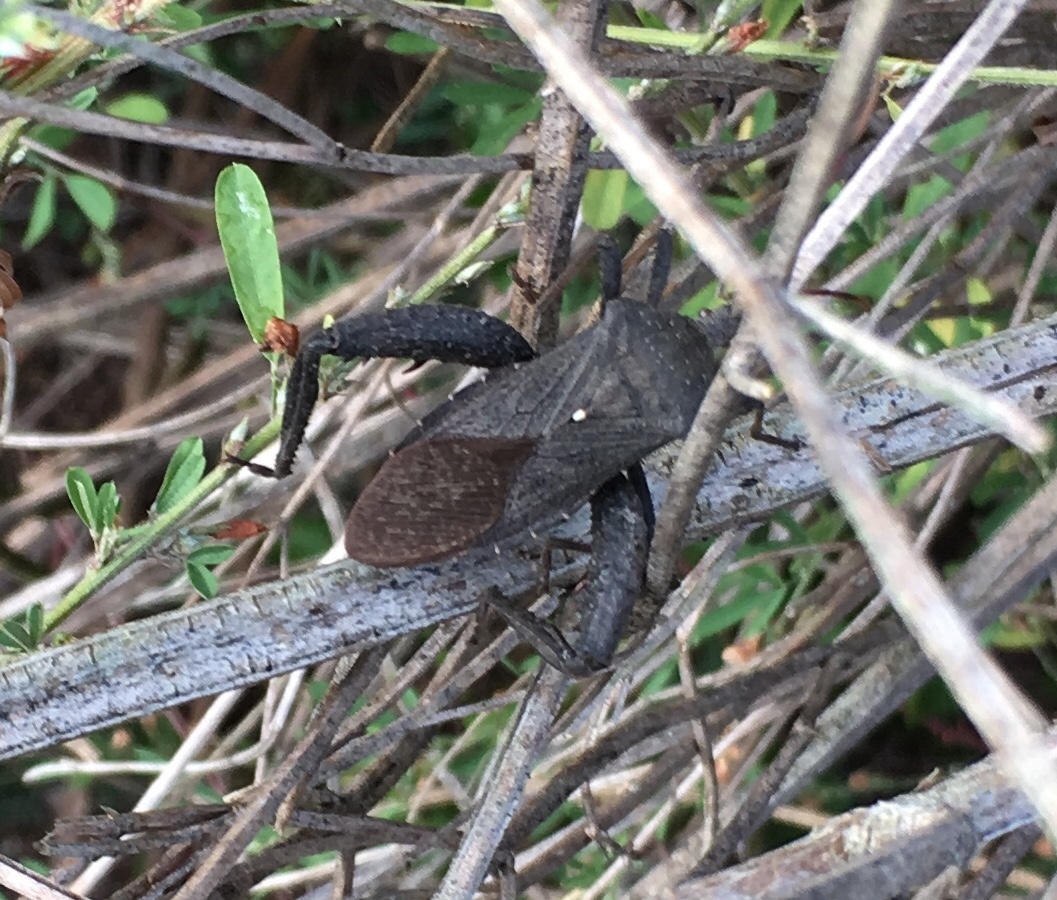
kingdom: Animalia
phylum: Arthropoda
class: Insecta
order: Hemiptera
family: Coreidae
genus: Acanthocephala
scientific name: Acanthocephala femorata
